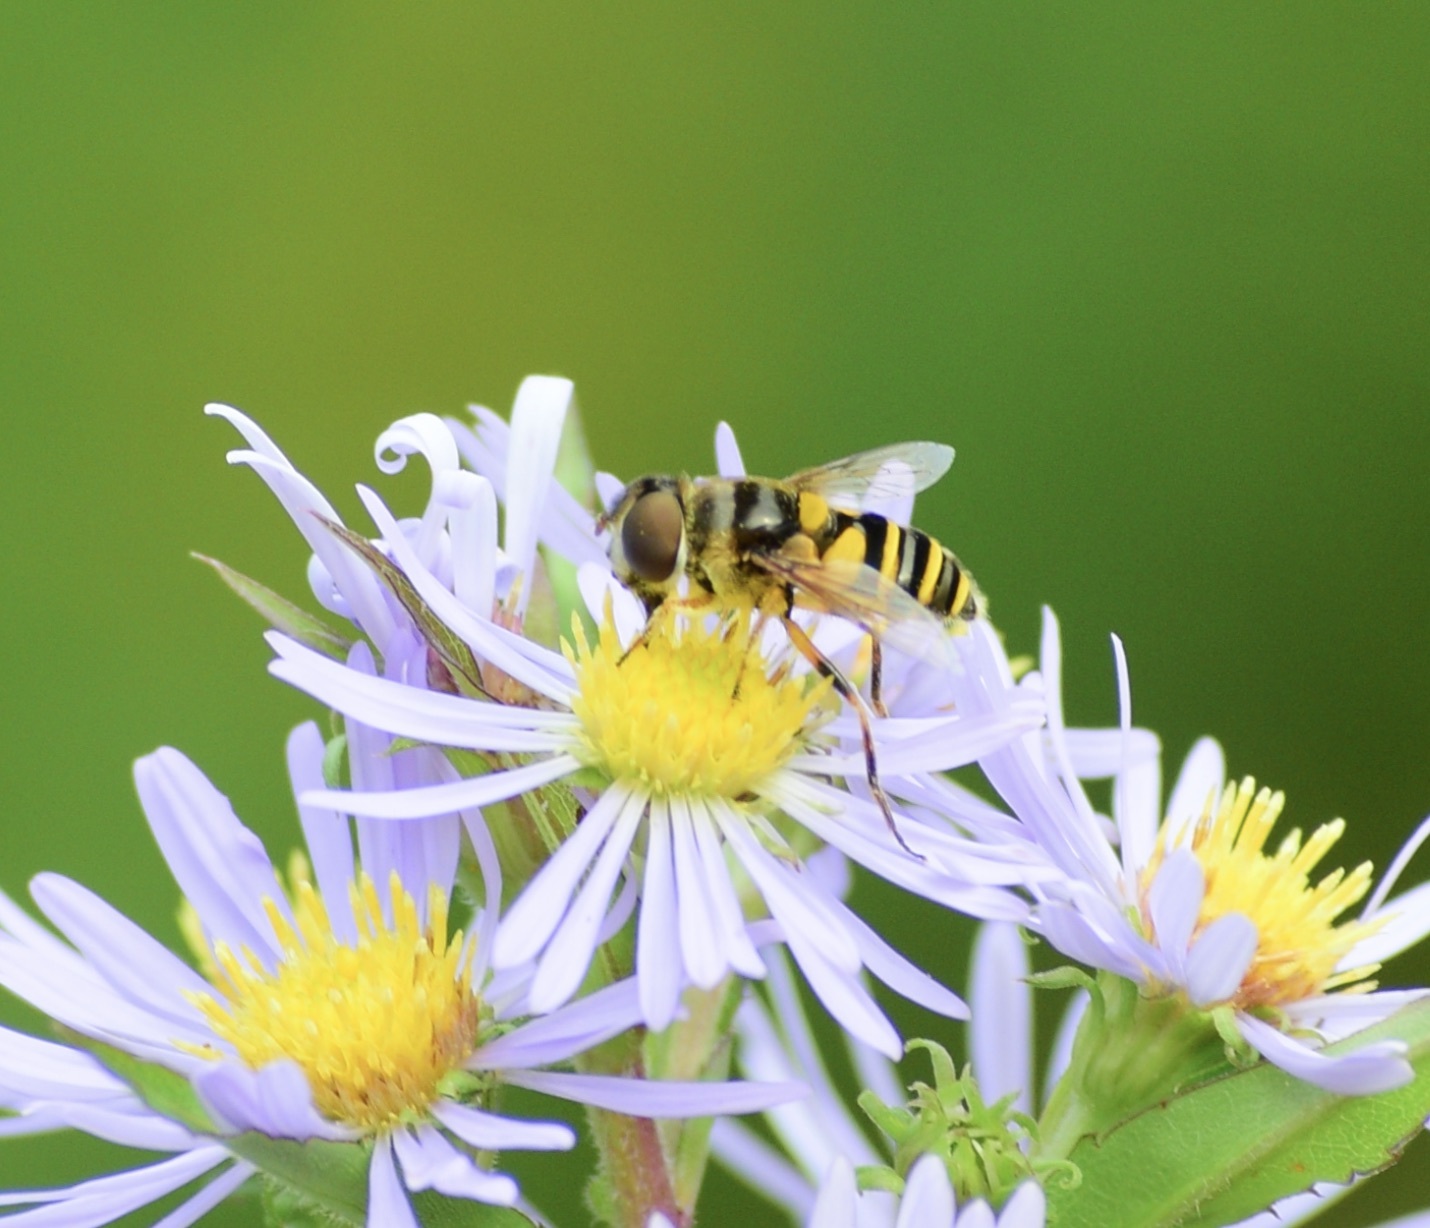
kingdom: Animalia
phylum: Arthropoda
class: Insecta
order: Diptera
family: Syrphidae
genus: Eristalis
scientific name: Eristalis transversa
